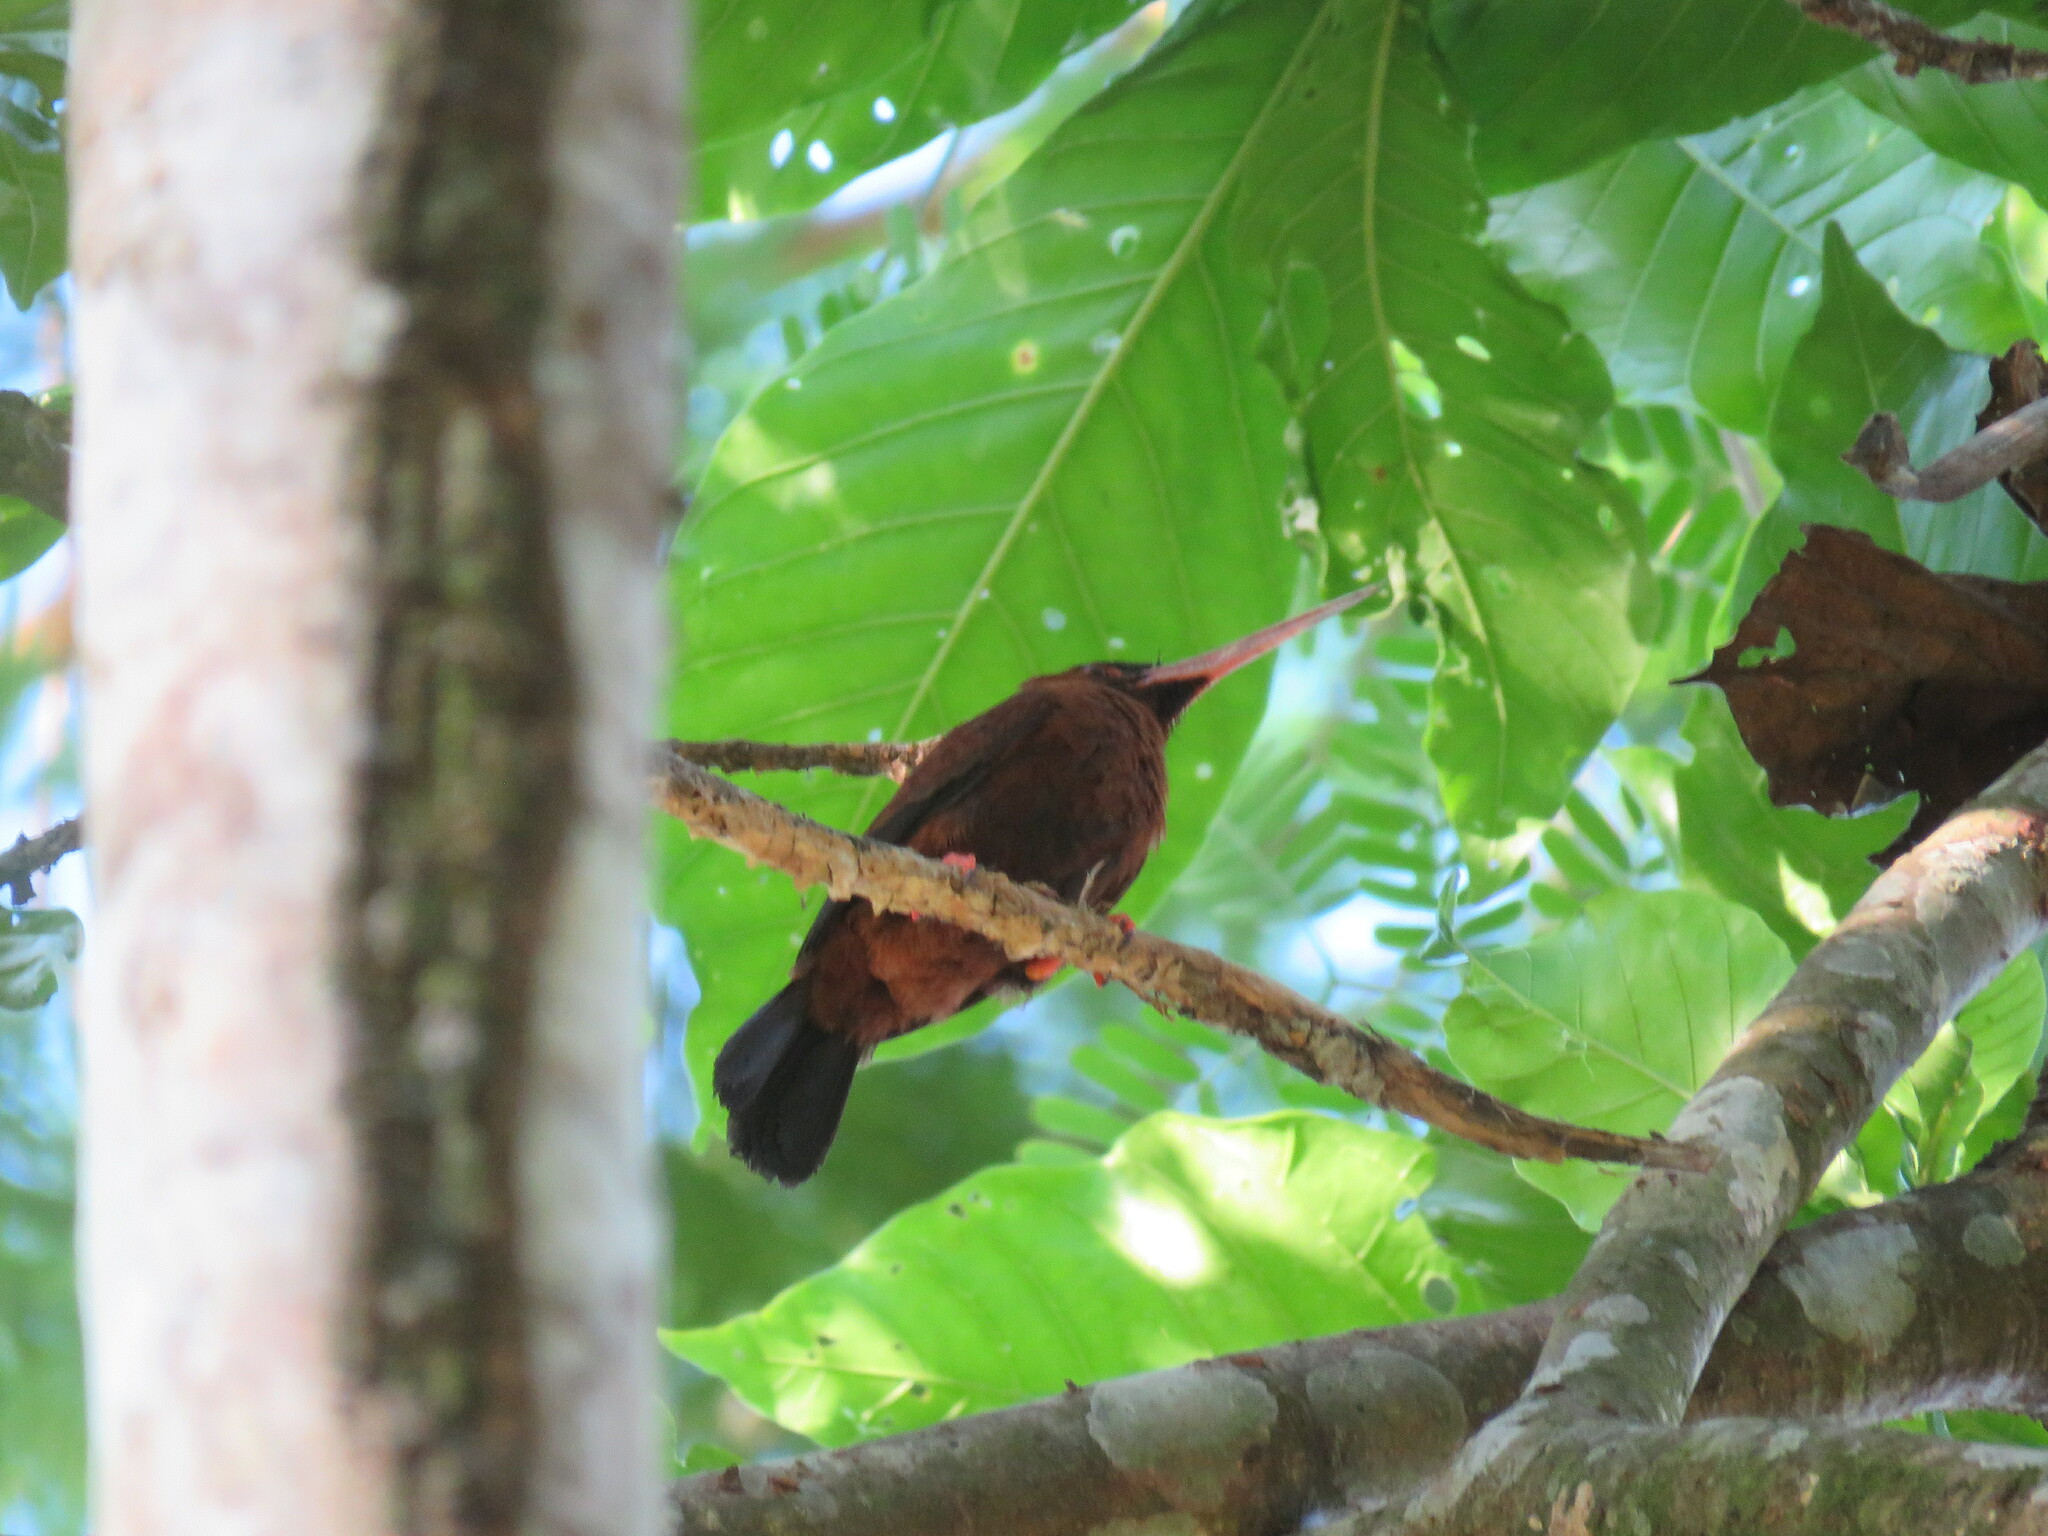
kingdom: Animalia
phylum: Chordata
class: Aves
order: Piciformes
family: Galbulidae
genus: Galbalcyrhynchus
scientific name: Galbalcyrhynchus purusianus
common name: Purus jacamar
